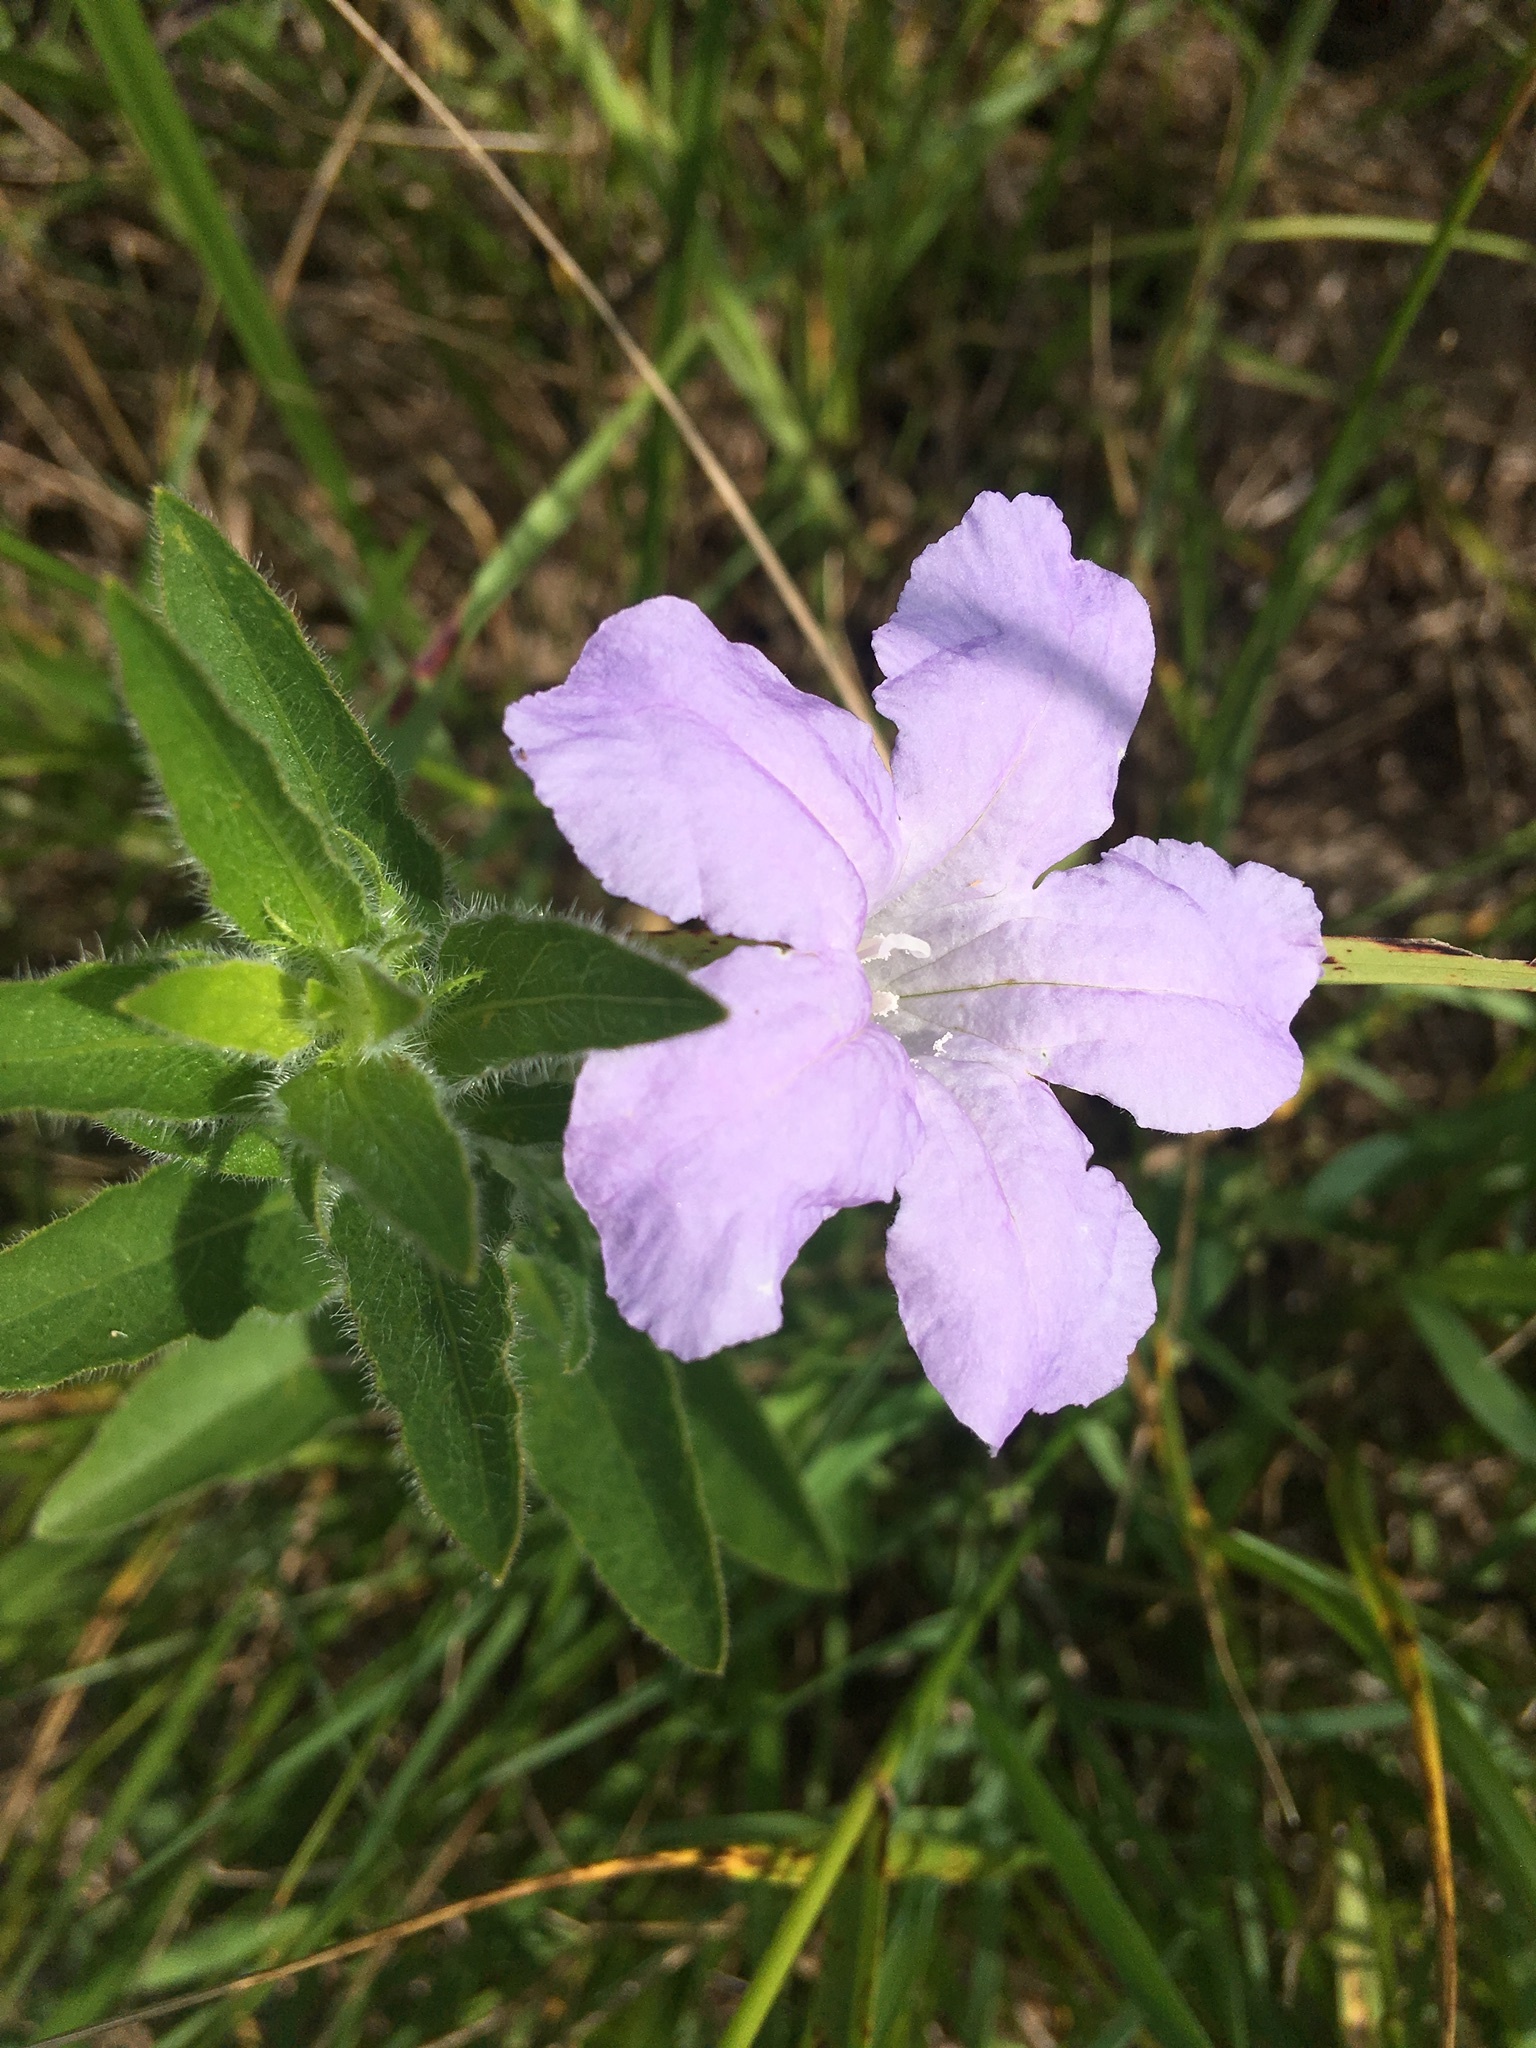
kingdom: Plantae
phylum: Tracheophyta
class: Magnoliopsida
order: Lamiales
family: Acanthaceae
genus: Ruellia
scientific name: Ruellia humilis
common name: Fringe-leaf ruellia
